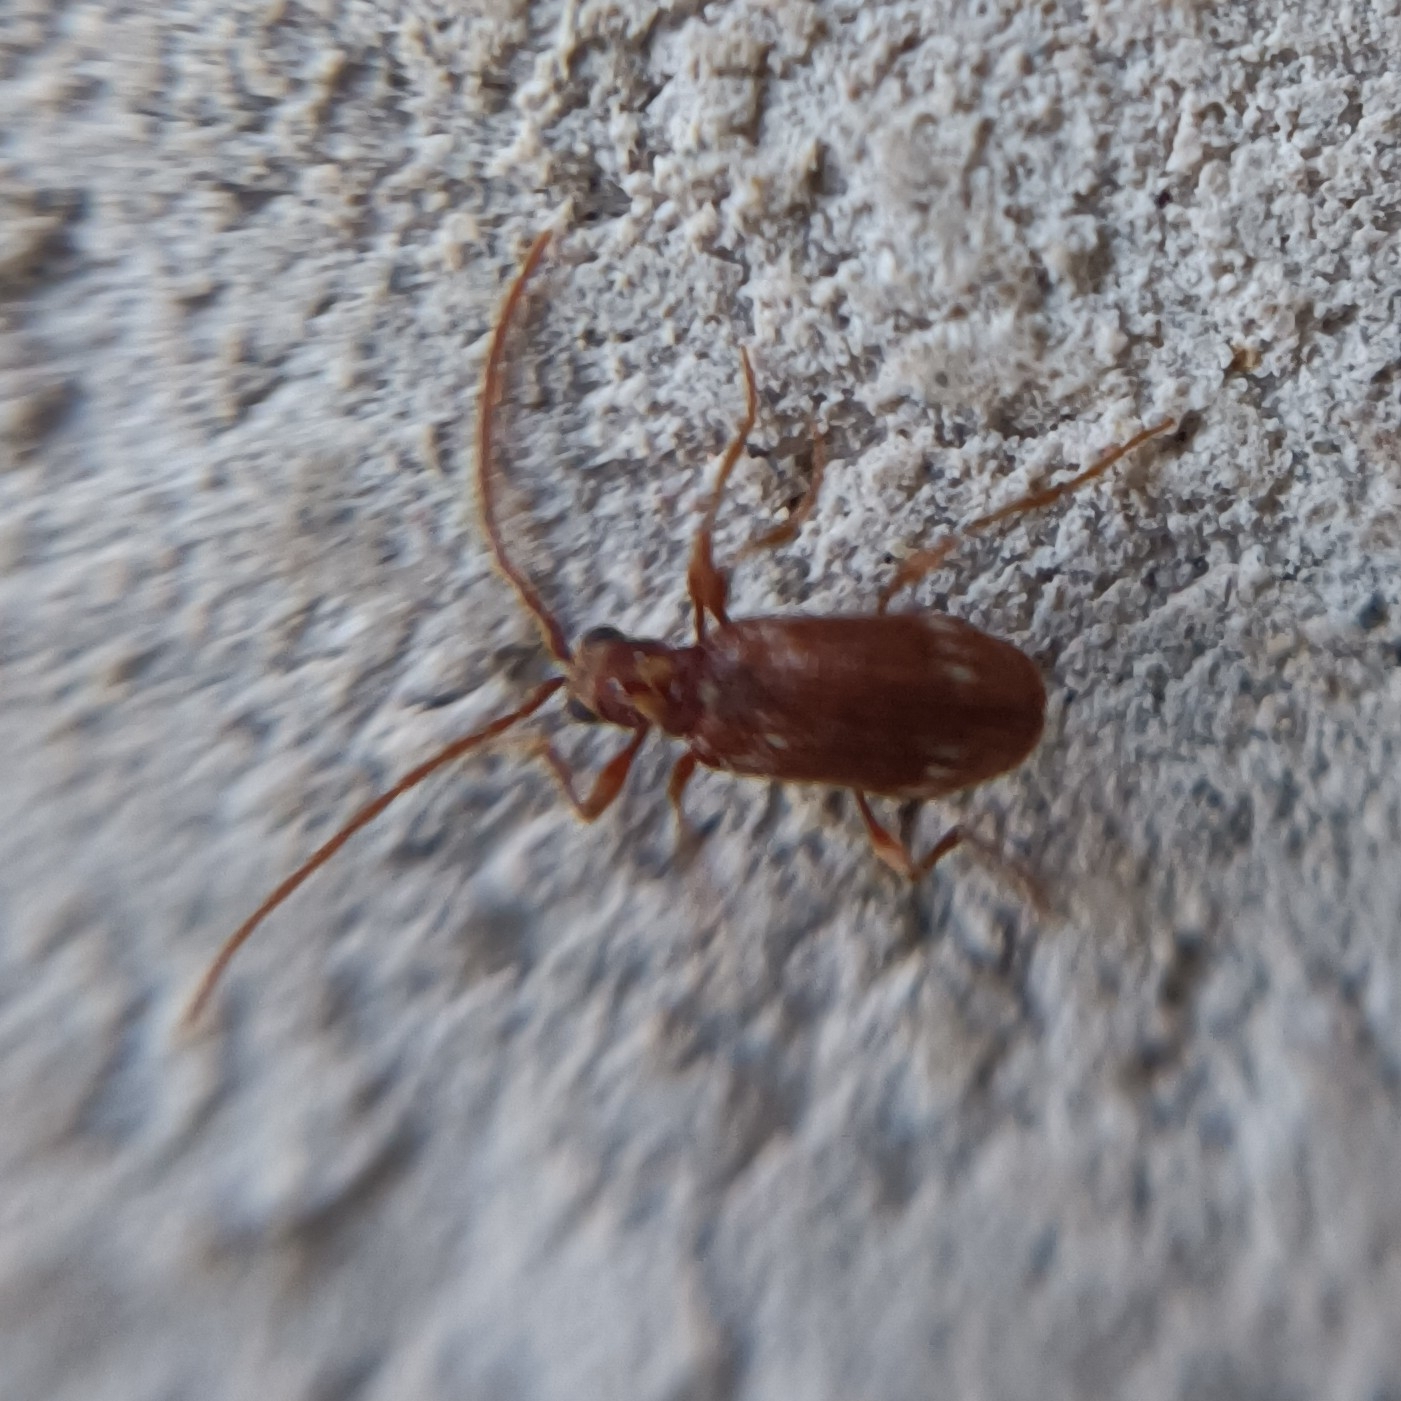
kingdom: Animalia
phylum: Arthropoda
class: Insecta
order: Coleoptera
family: Ptinidae
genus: Ptinus
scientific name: Ptinus fur
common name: White-marked spider beetle
